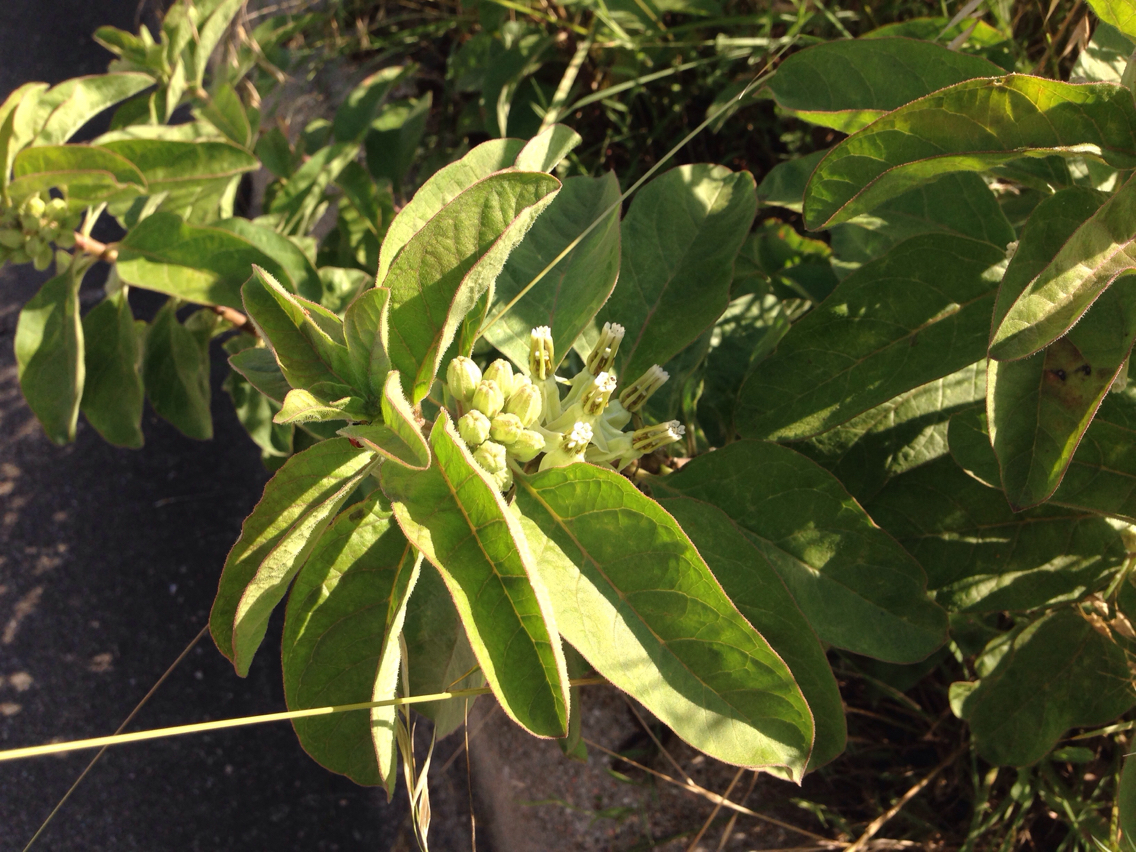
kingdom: Plantae
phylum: Tracheophyta
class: Magnoliopsida
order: Gentianales
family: Apocynaceae
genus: Asclepias
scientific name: Asclepias oenotheroides
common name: Zizotes milkweed
